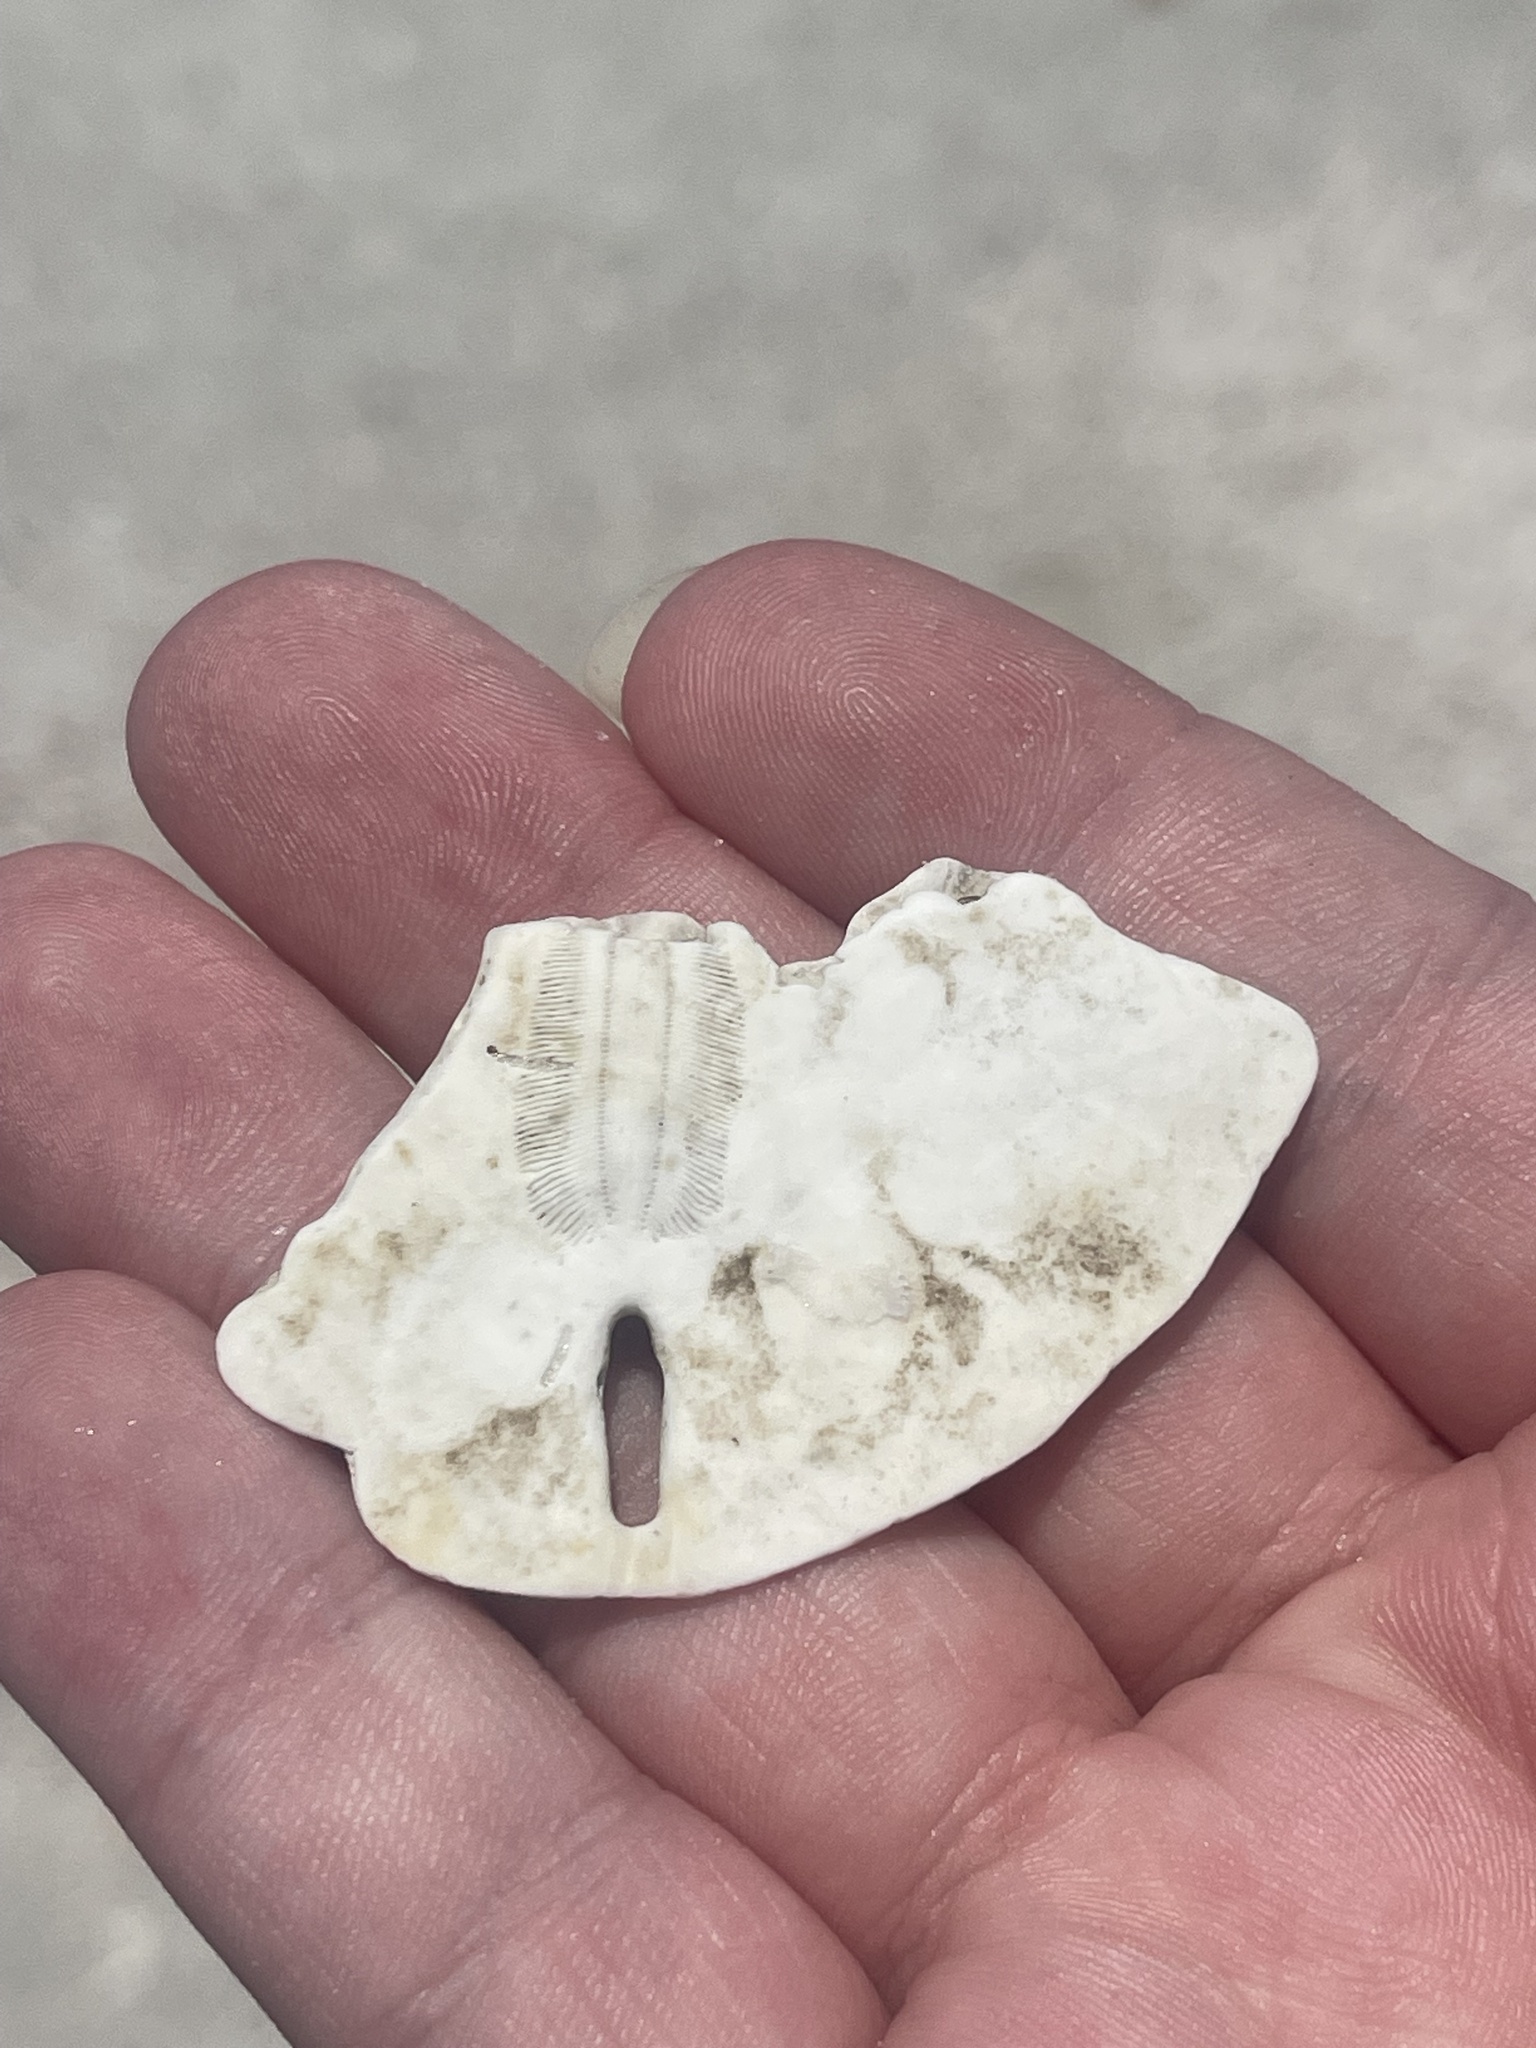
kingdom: Animalia
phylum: Echinodermata
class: Echinoidea
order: Echinolampadacea
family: Mellitidae
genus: Mellita
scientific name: Mellita quinquiesperforata
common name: Sand dollar
